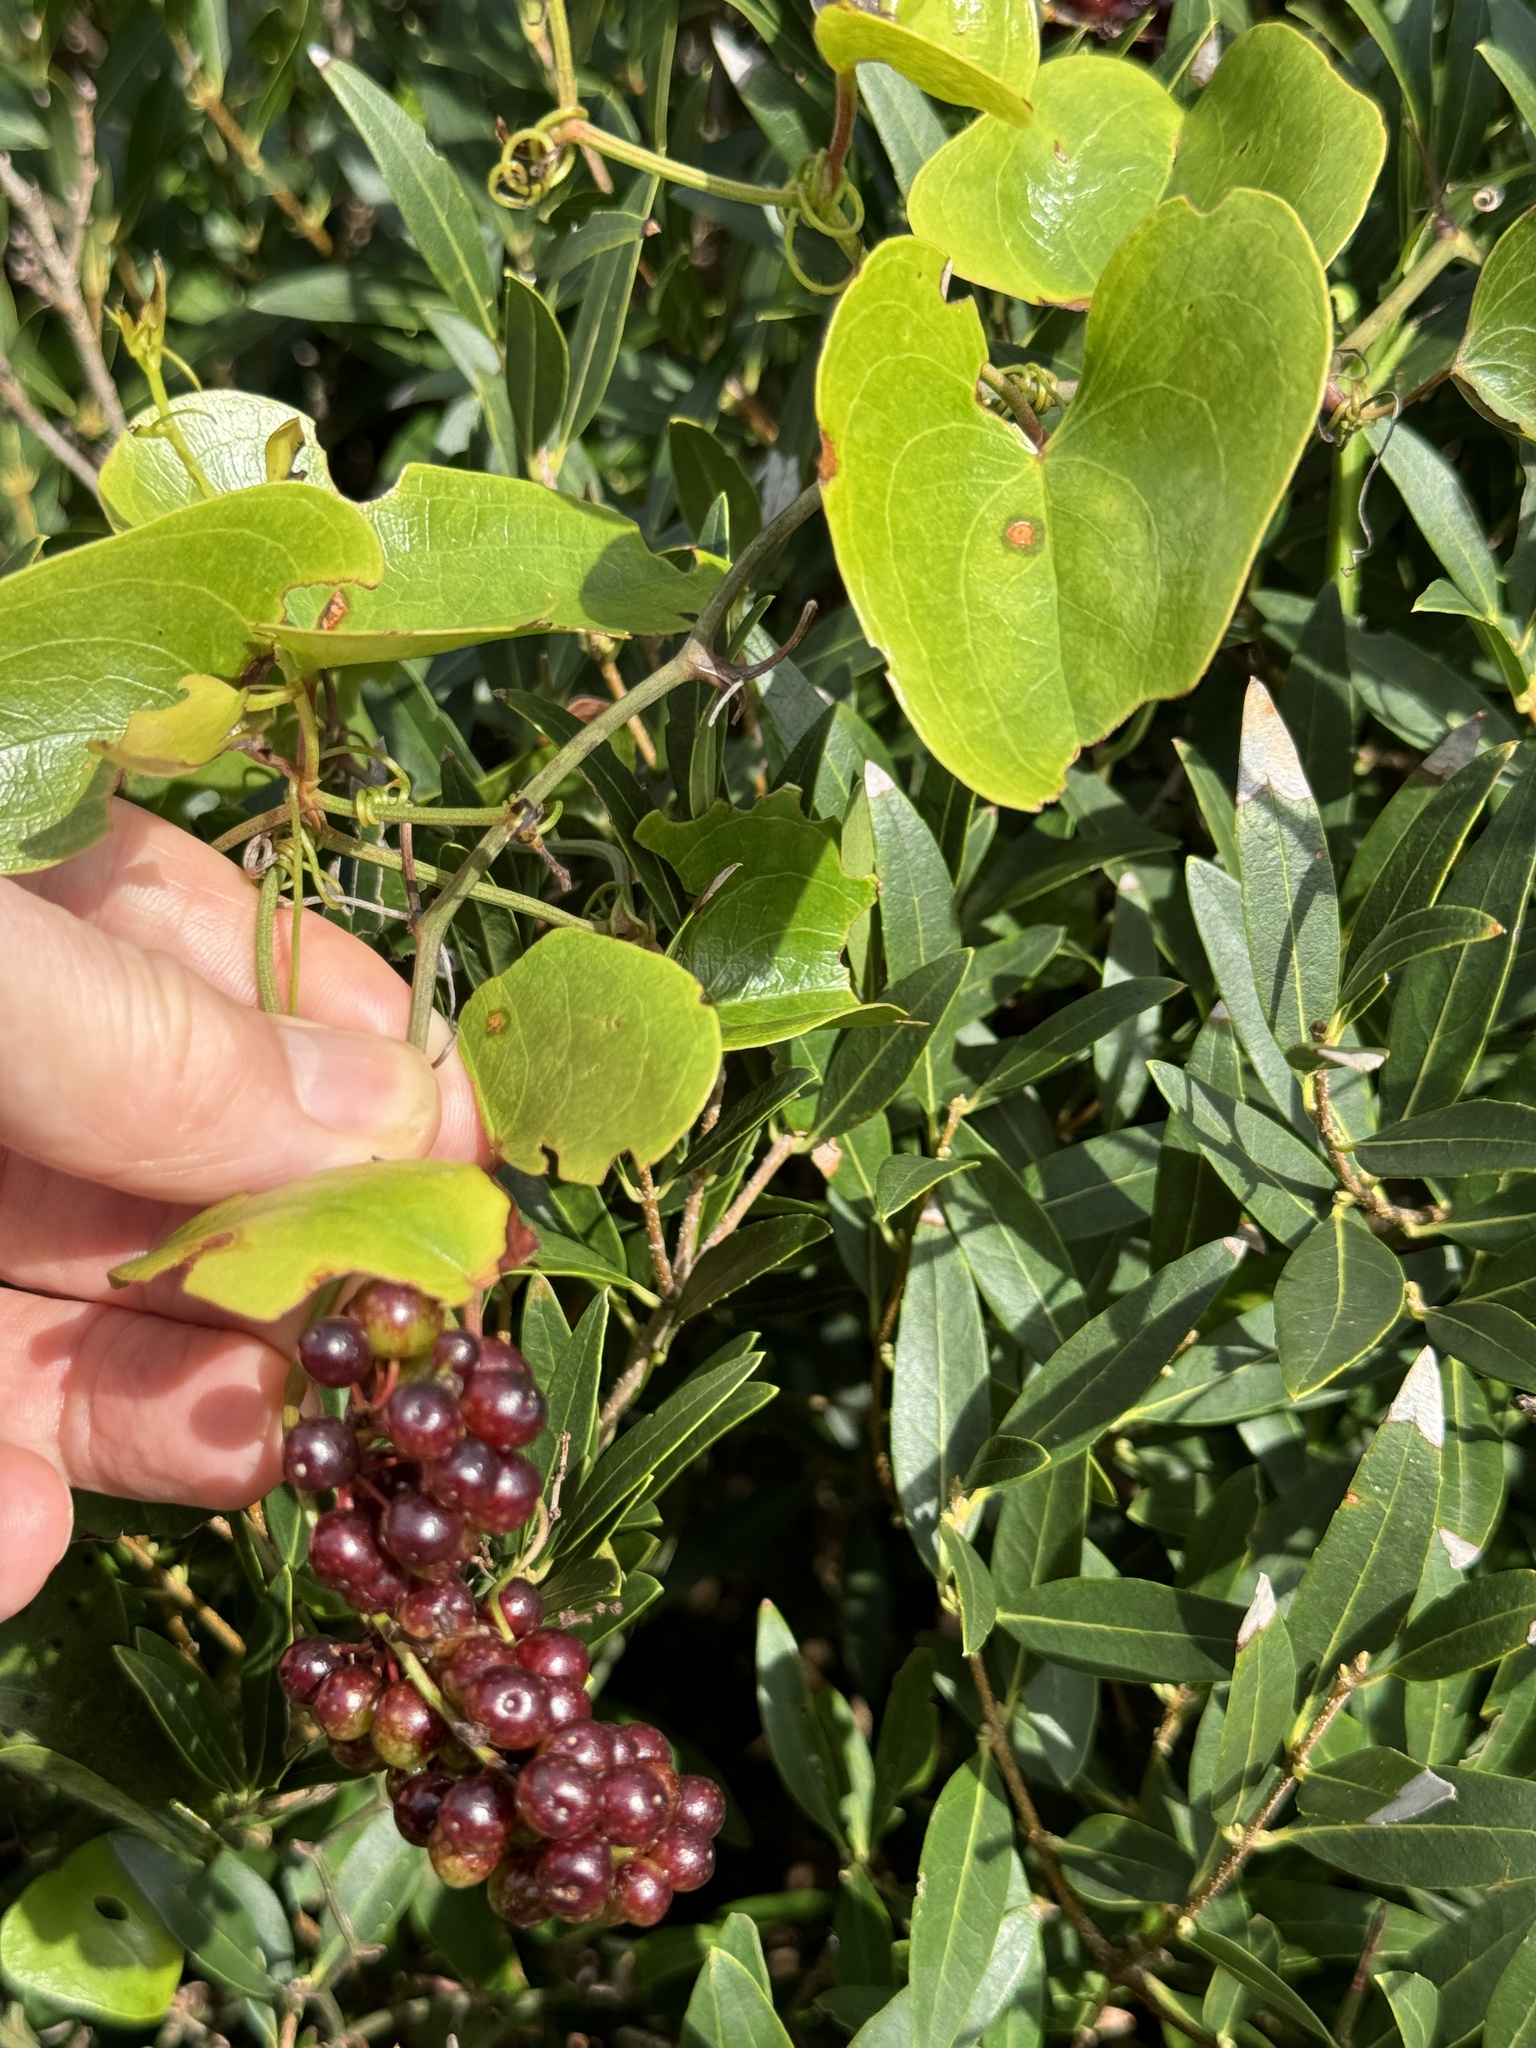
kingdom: Plantae
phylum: Tracheophyta
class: Liliopsida
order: Liliales
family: Smilacaceae
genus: Smilax
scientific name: Smilax aspera
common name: Common smilax
